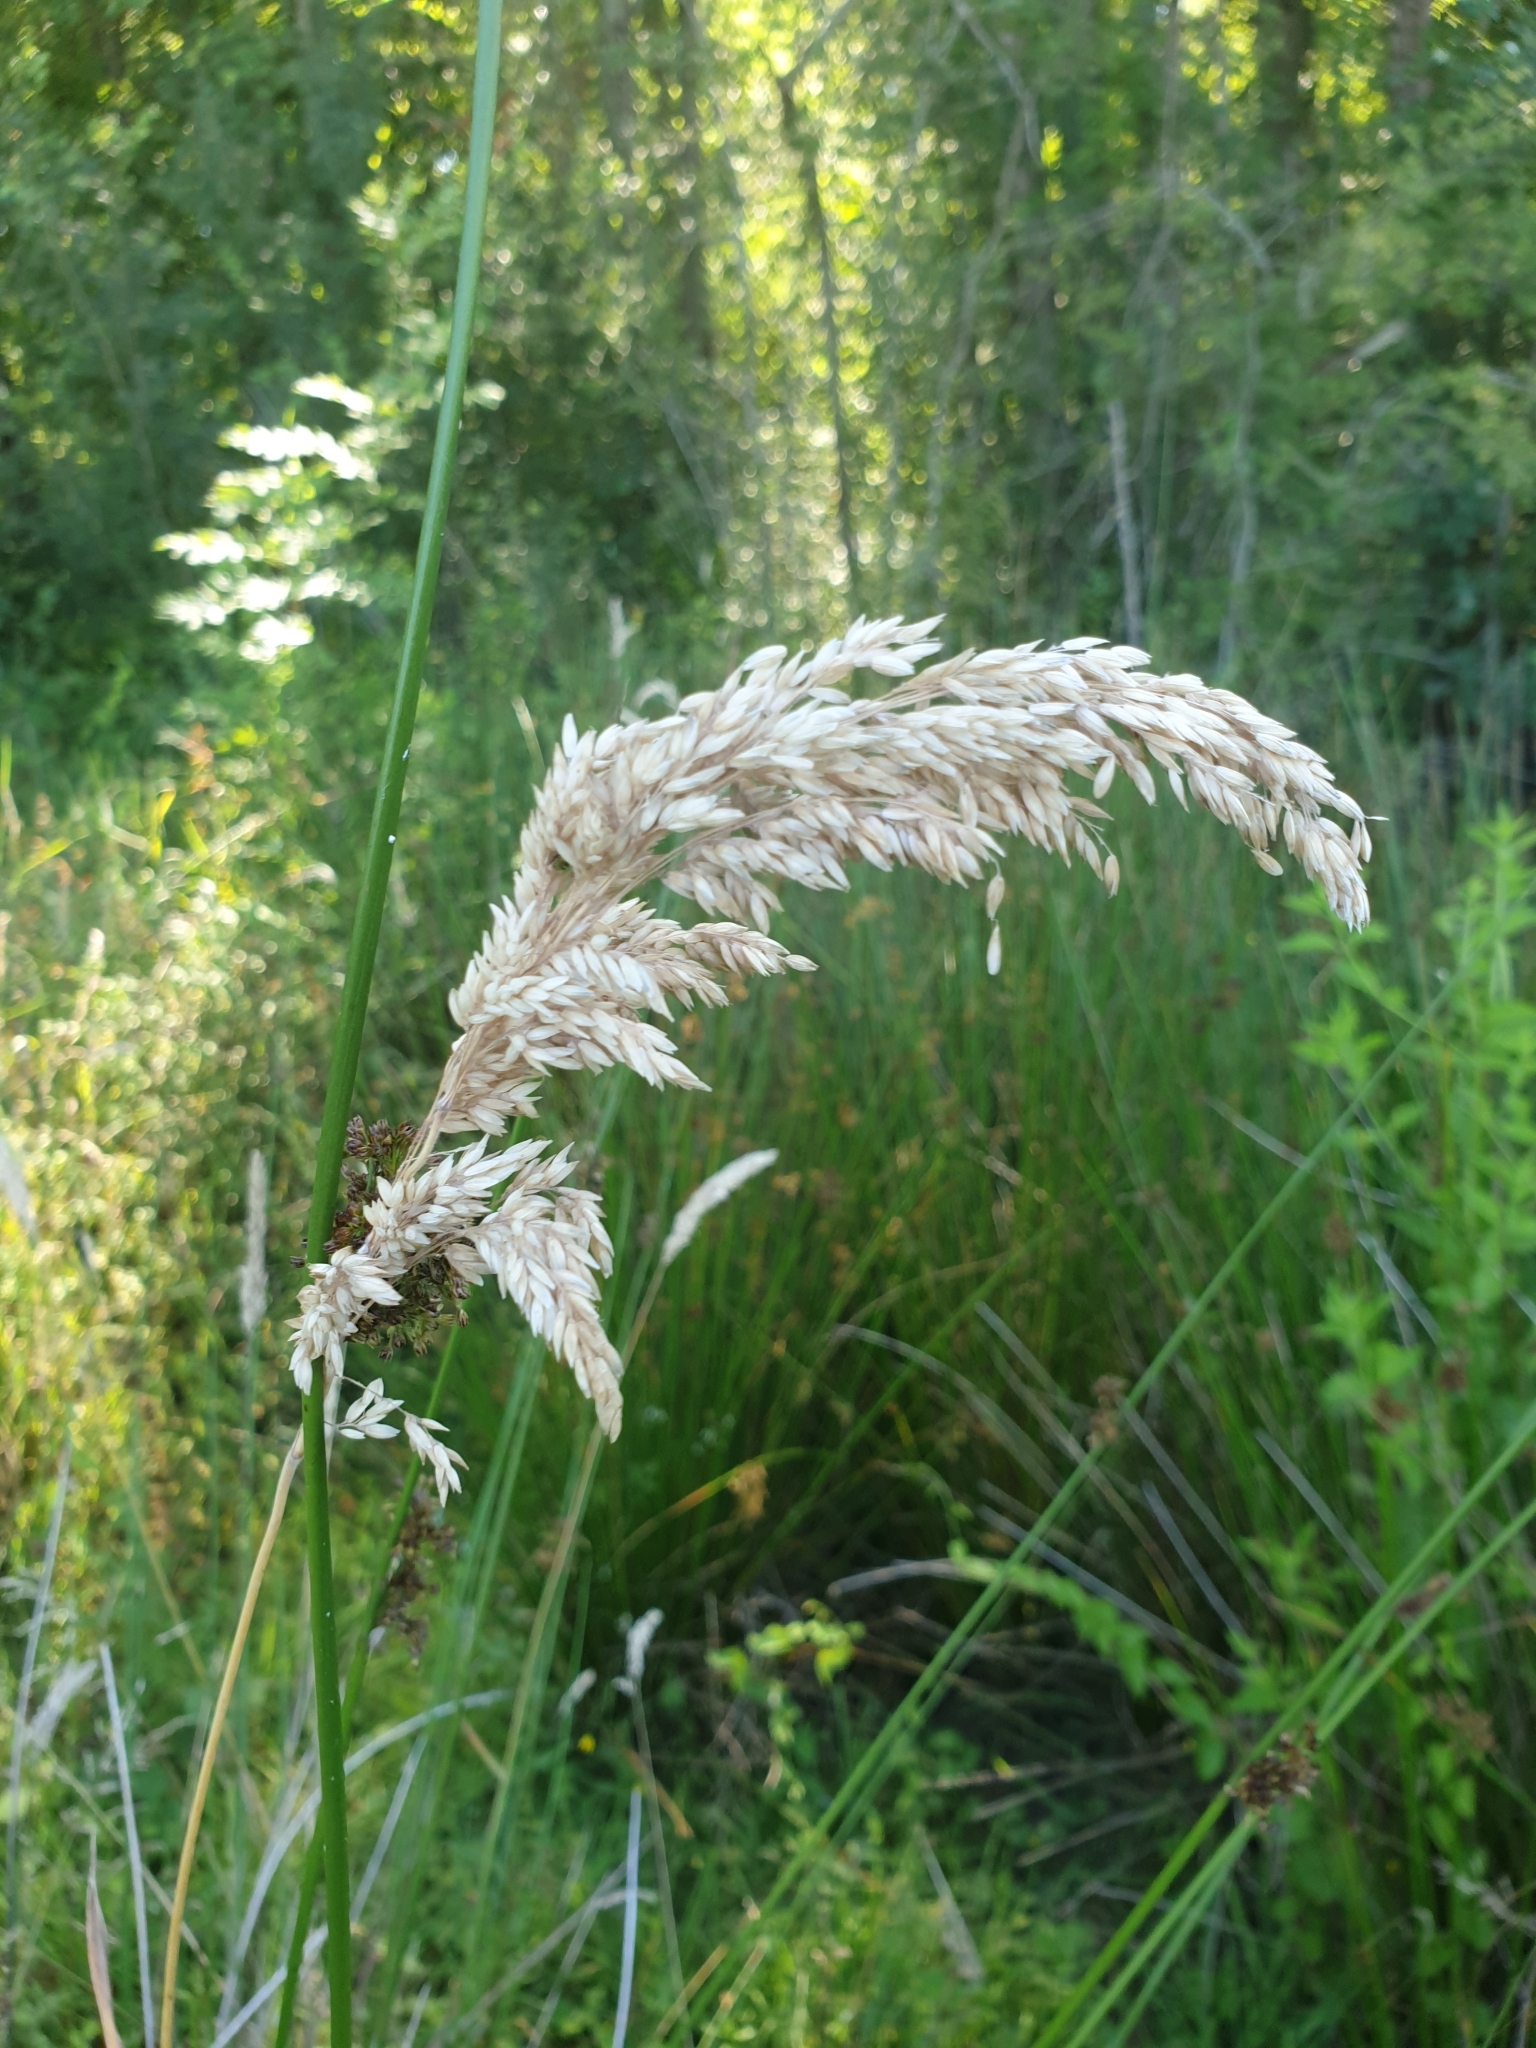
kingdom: Plantae
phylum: Tracheophyta
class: Liliopsida
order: Poales
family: Poaceae
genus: Holcus
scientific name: Holcus lanatus
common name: Yorkshire-fog
